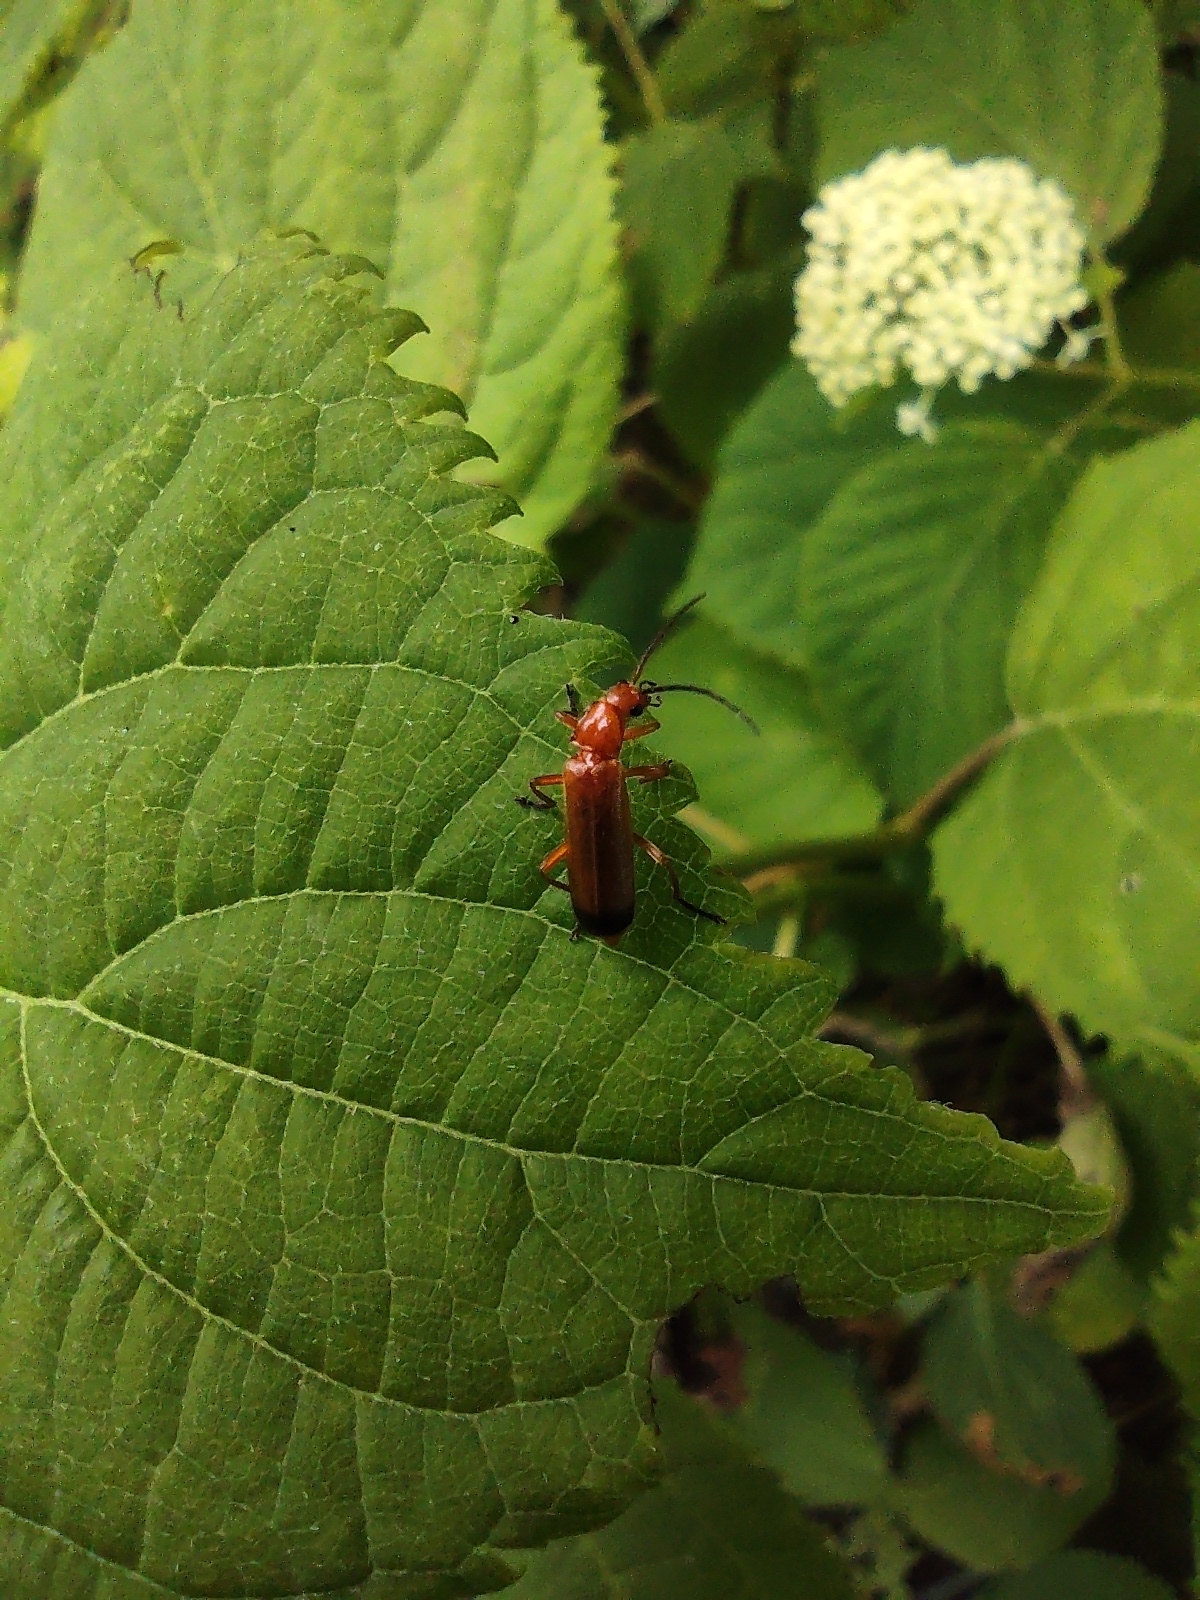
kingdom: Animalia
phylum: Arthropoda
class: Insecta
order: Coleoptera
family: Cantharidae
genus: Rhagonycha
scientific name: Rhagonycha fulva
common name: Common red soldier beetle
